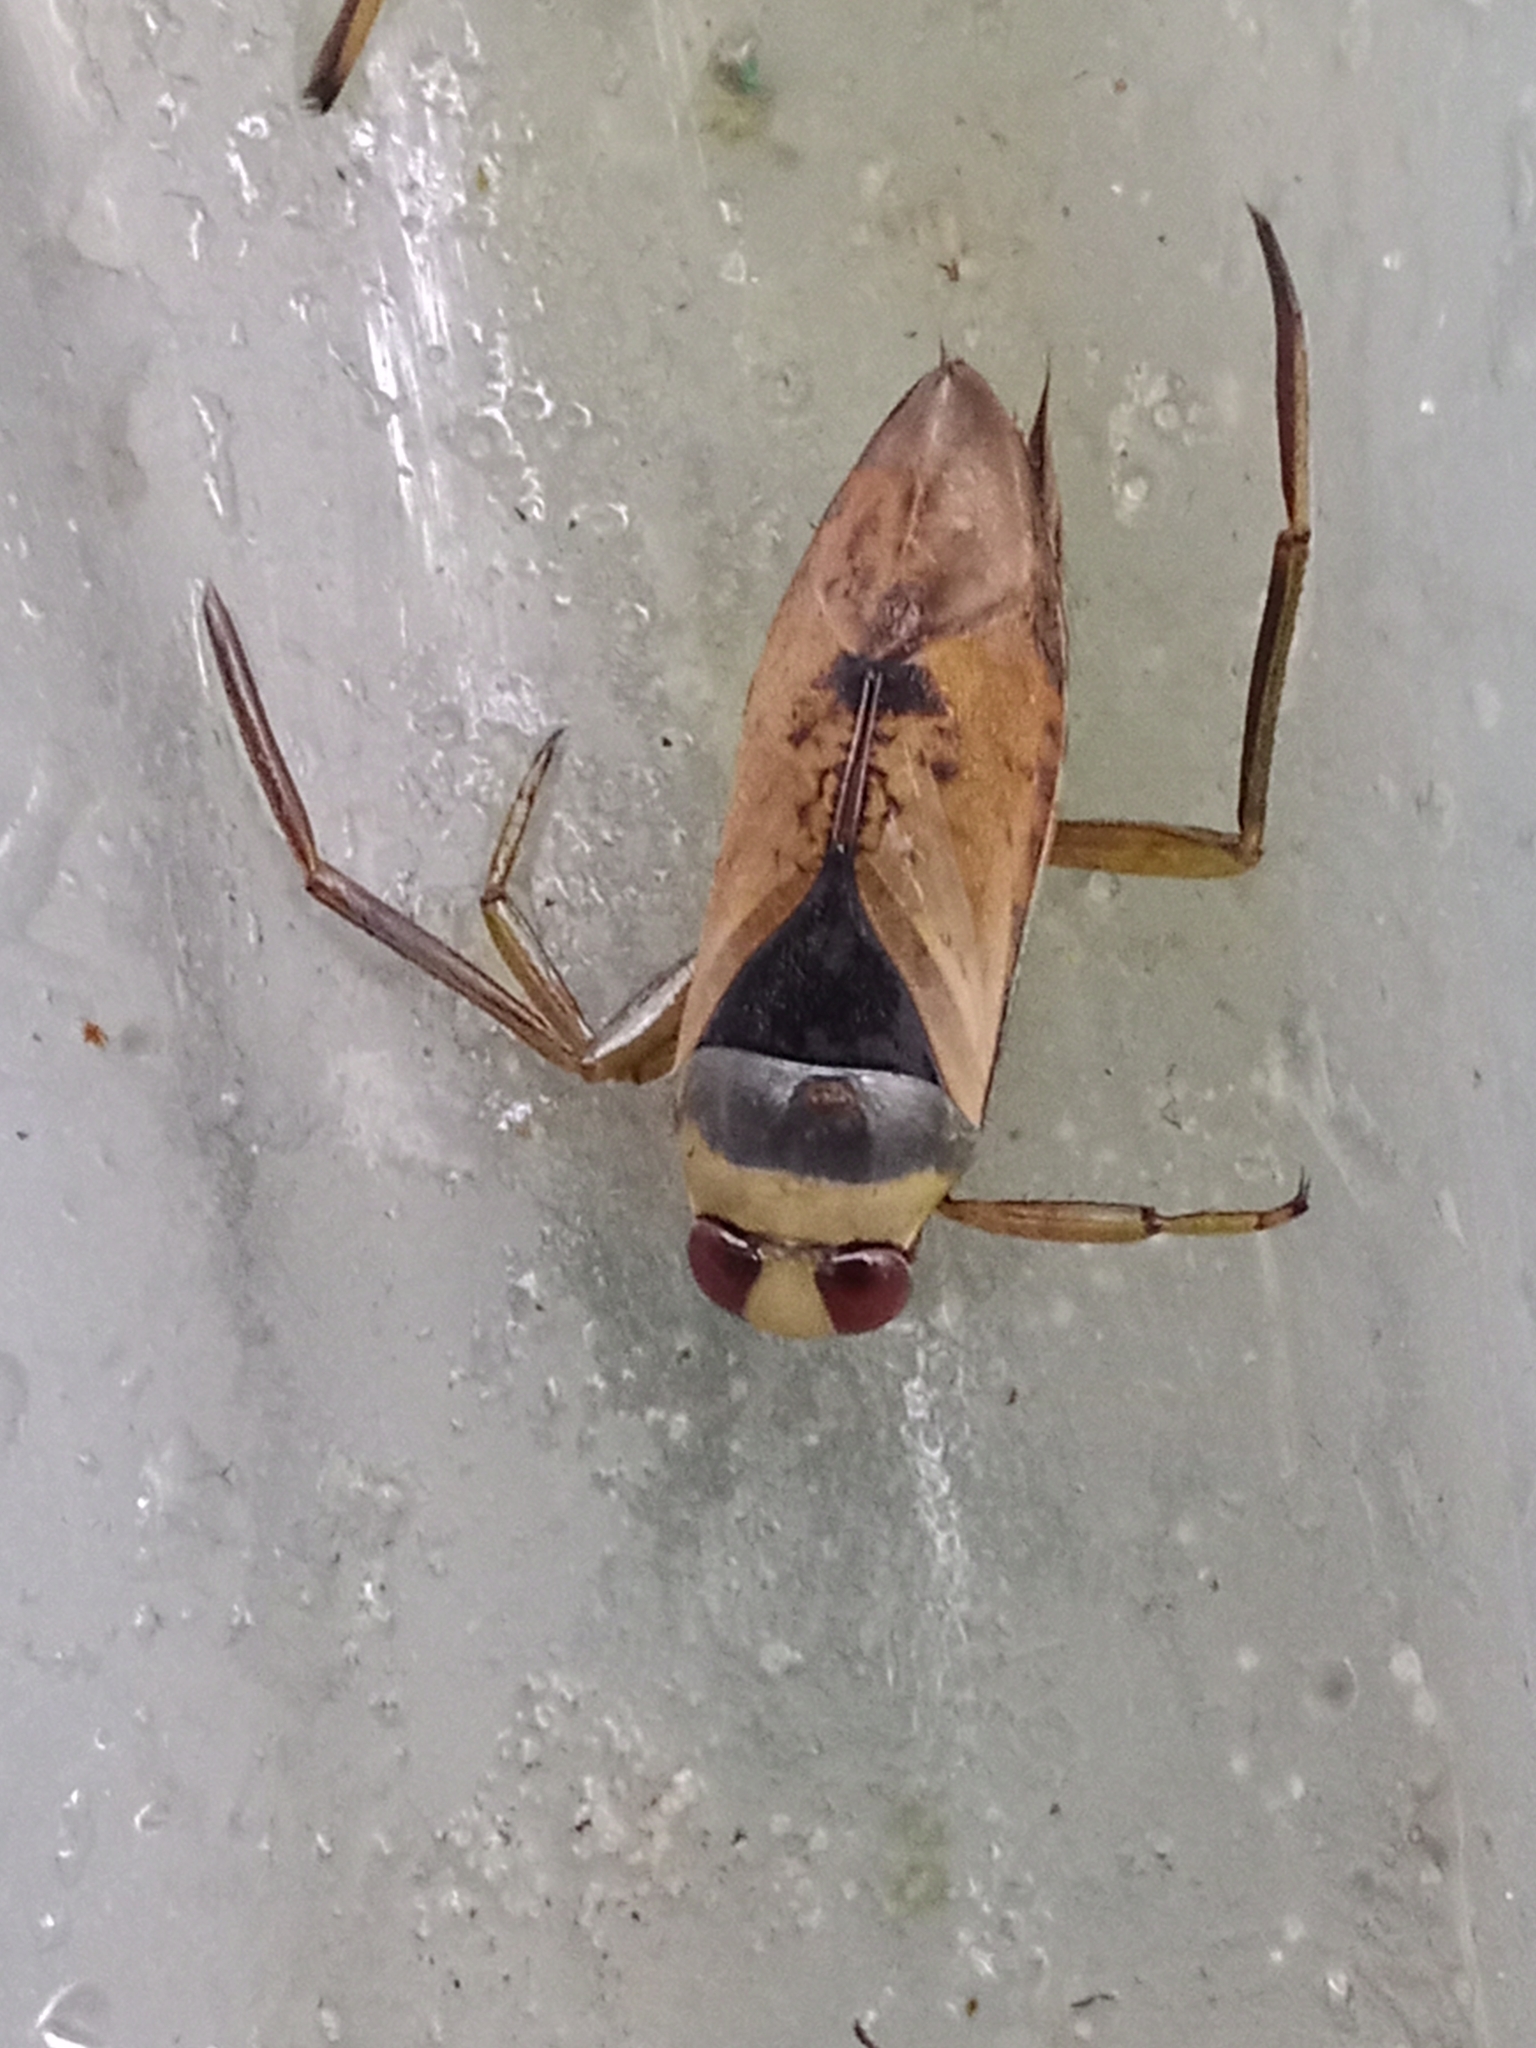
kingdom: Animalia
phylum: Arthropoda
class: Insecta
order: Hemiptera
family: Notonectidae
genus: Notonecta
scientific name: Notonecta glauca
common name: Common water-boatman
